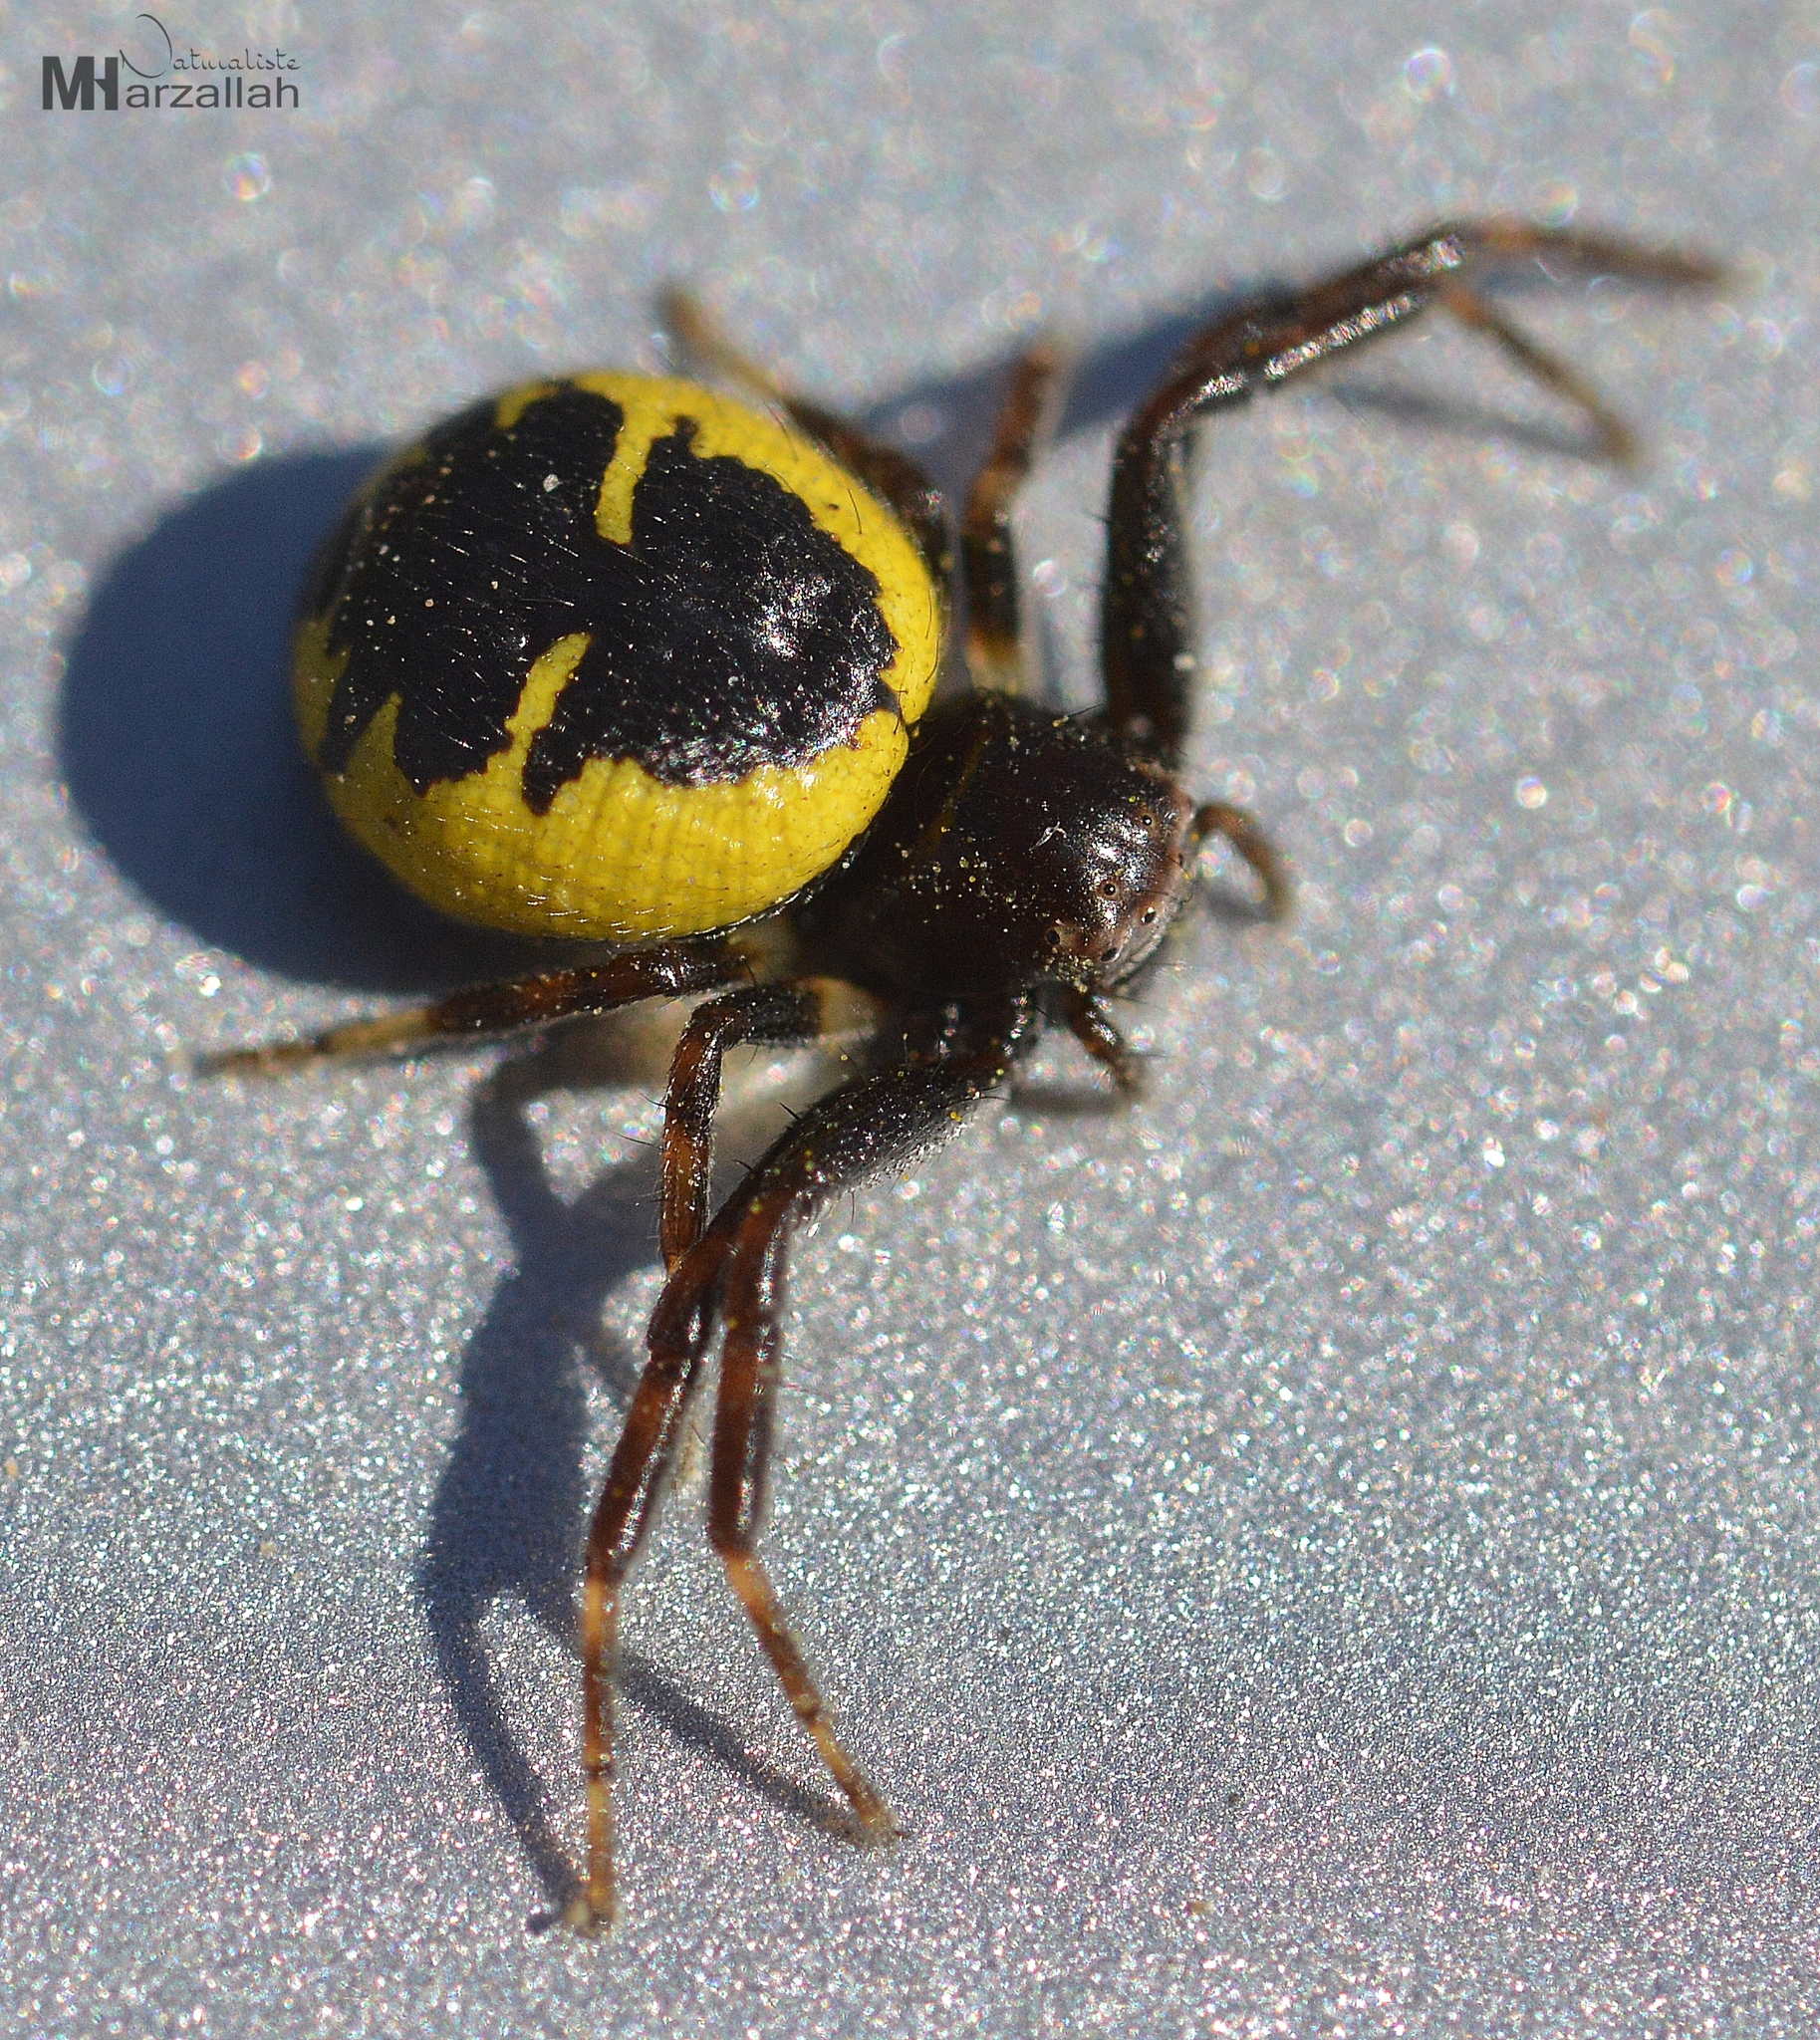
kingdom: Animalia
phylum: Arthropoda
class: Arachnida
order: Araneae
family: Thomisidae
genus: Synema
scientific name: Synema globosum
